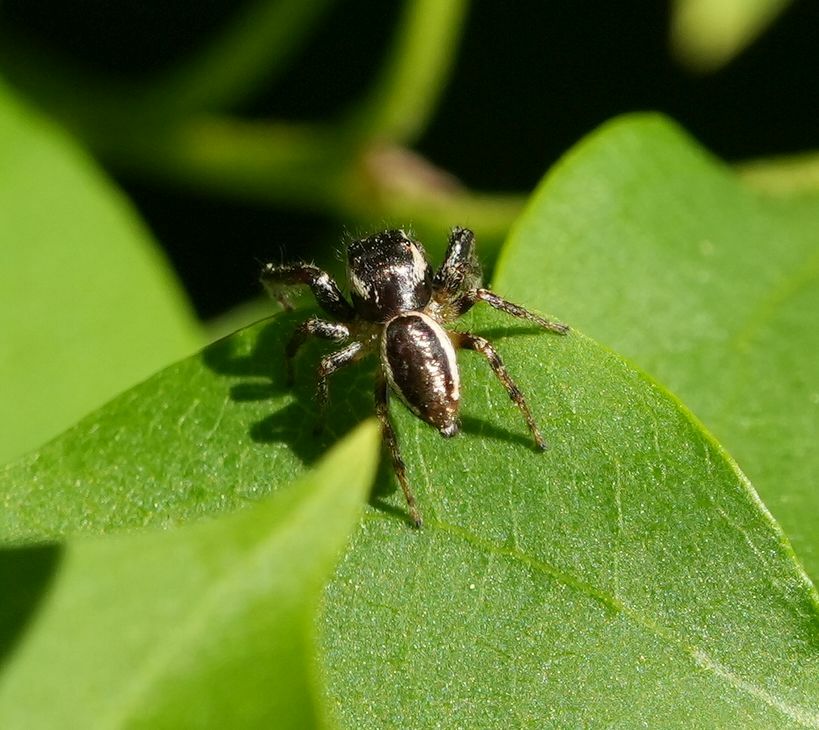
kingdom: Animalia
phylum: Arthropoda
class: Arachnida
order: Araneae
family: Salticidae
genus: Eris
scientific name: Eris militaris
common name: Bronze jumper
